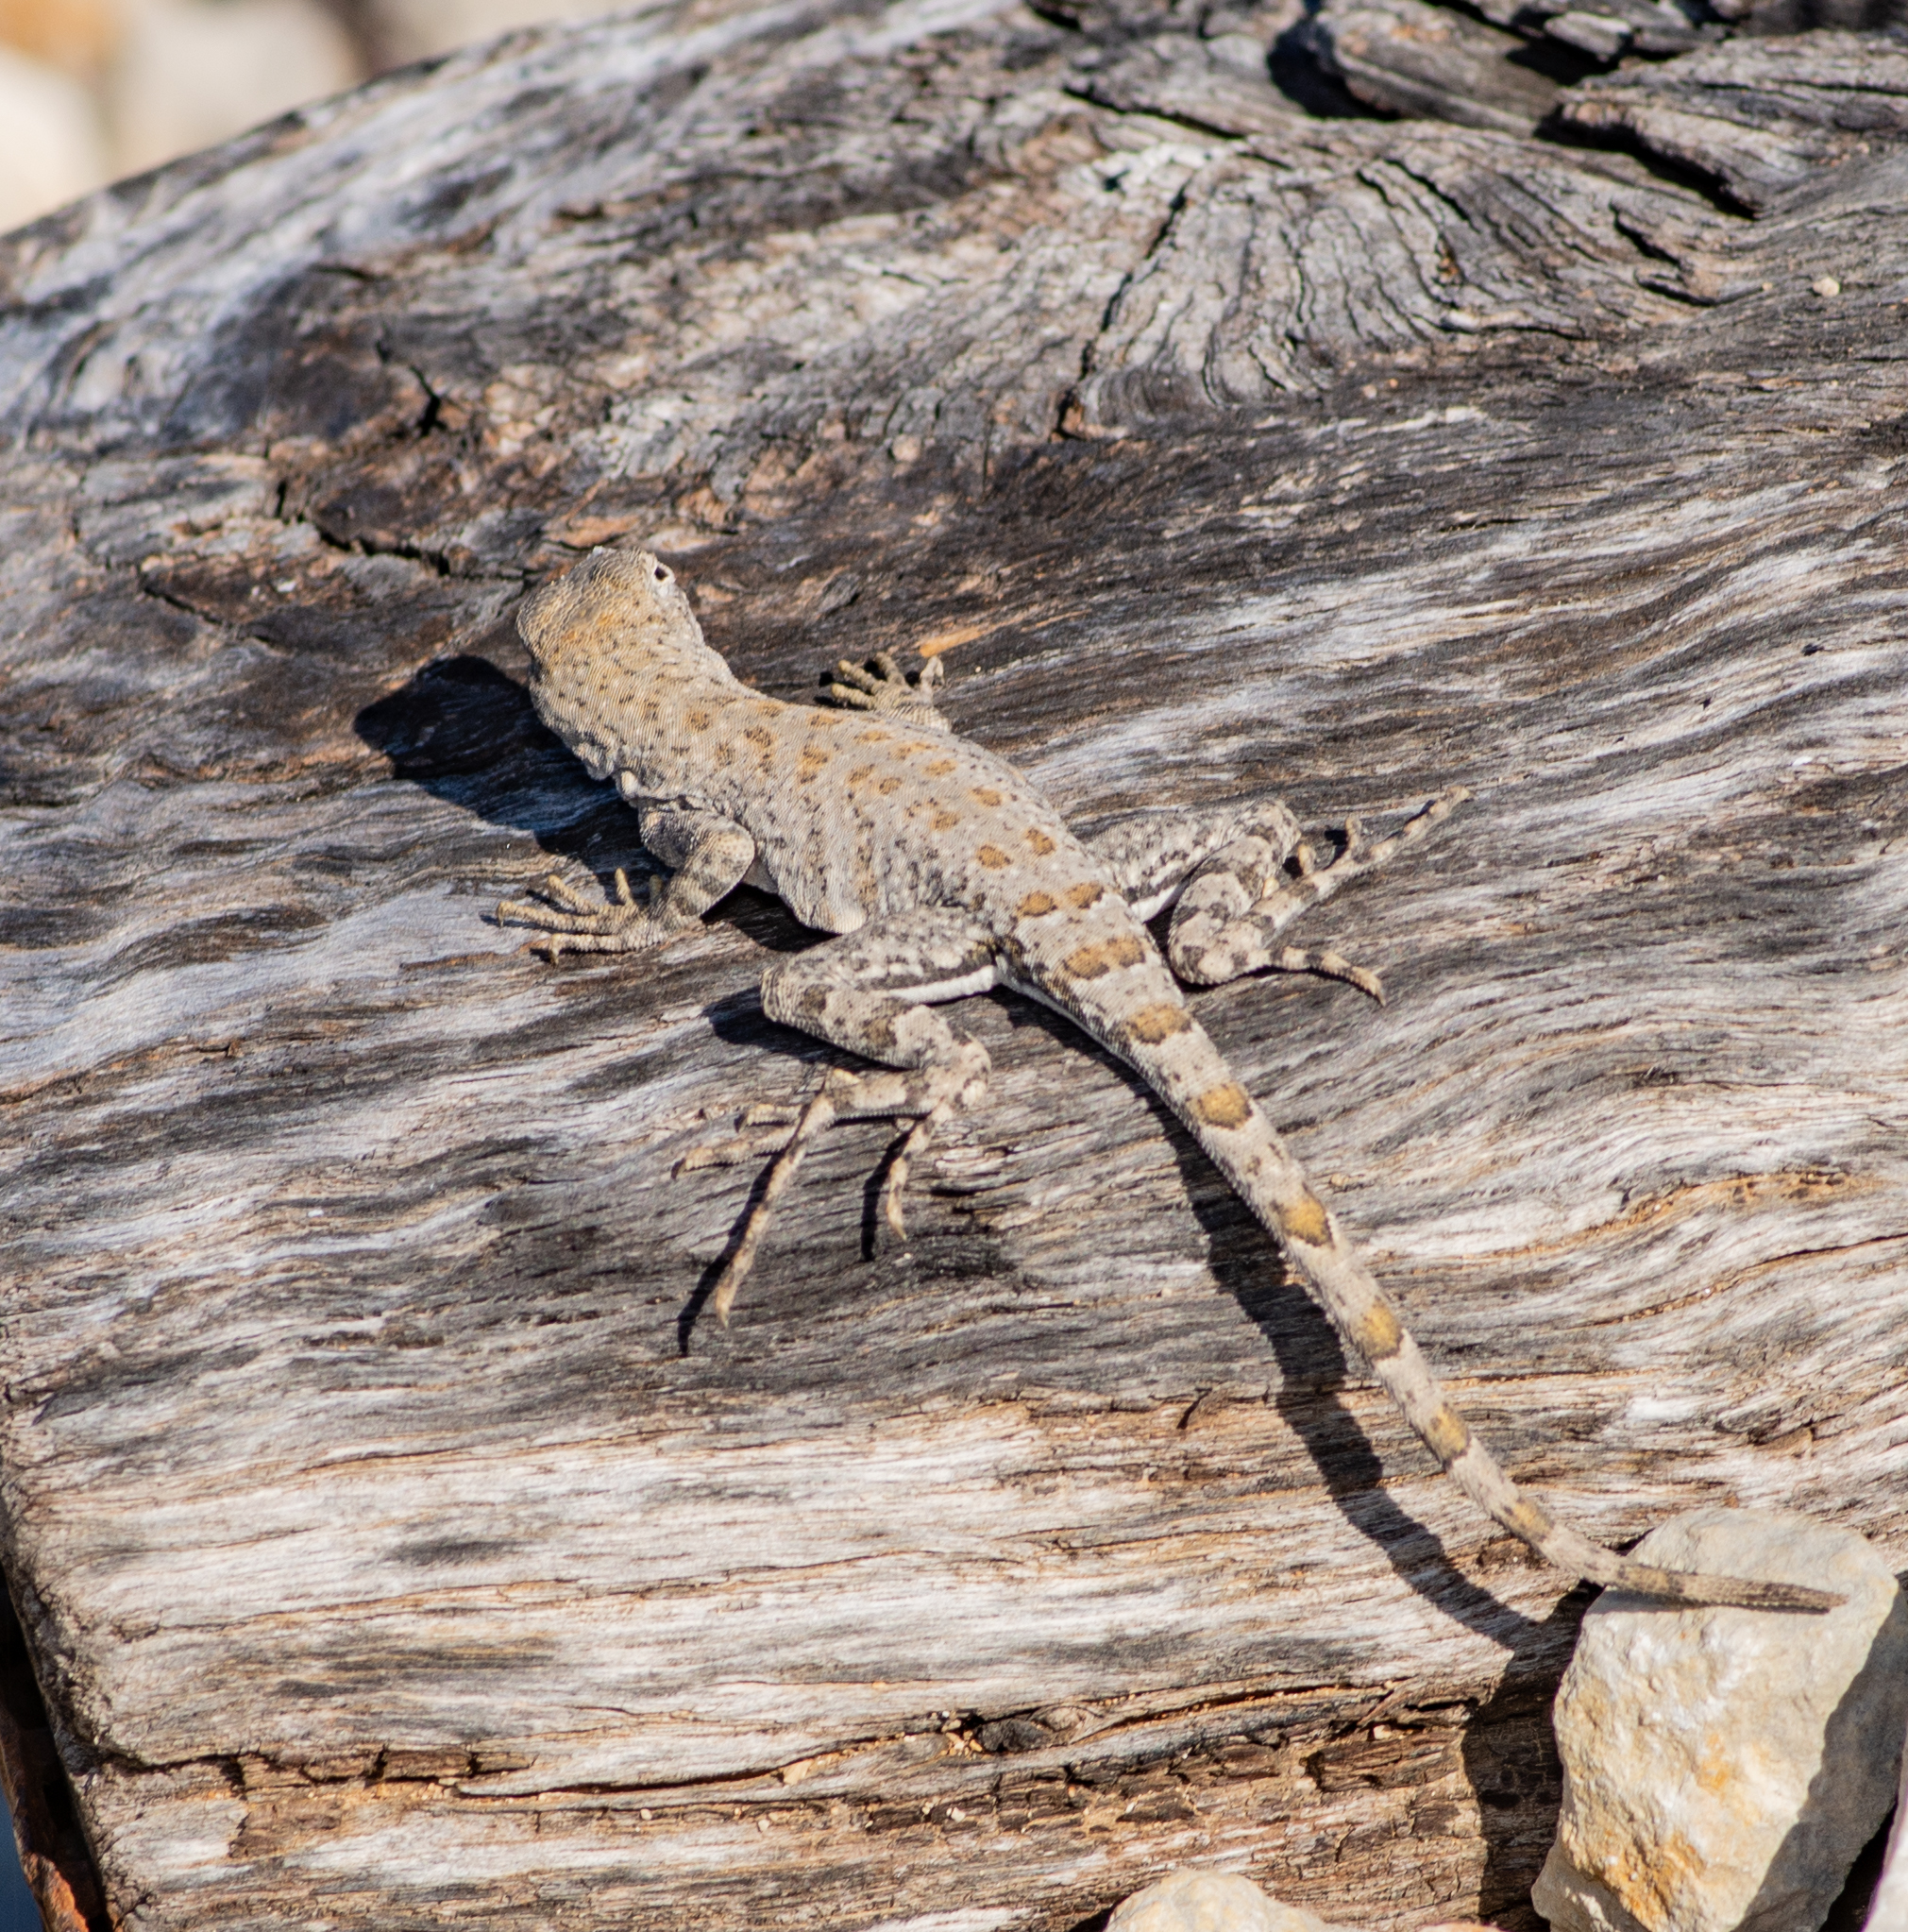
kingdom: Animalia
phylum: Chordata
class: Squamata
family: Phrynosomatidae
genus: Cophosaurus
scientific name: Cophosaurus texanus
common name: Greater earless lizard
